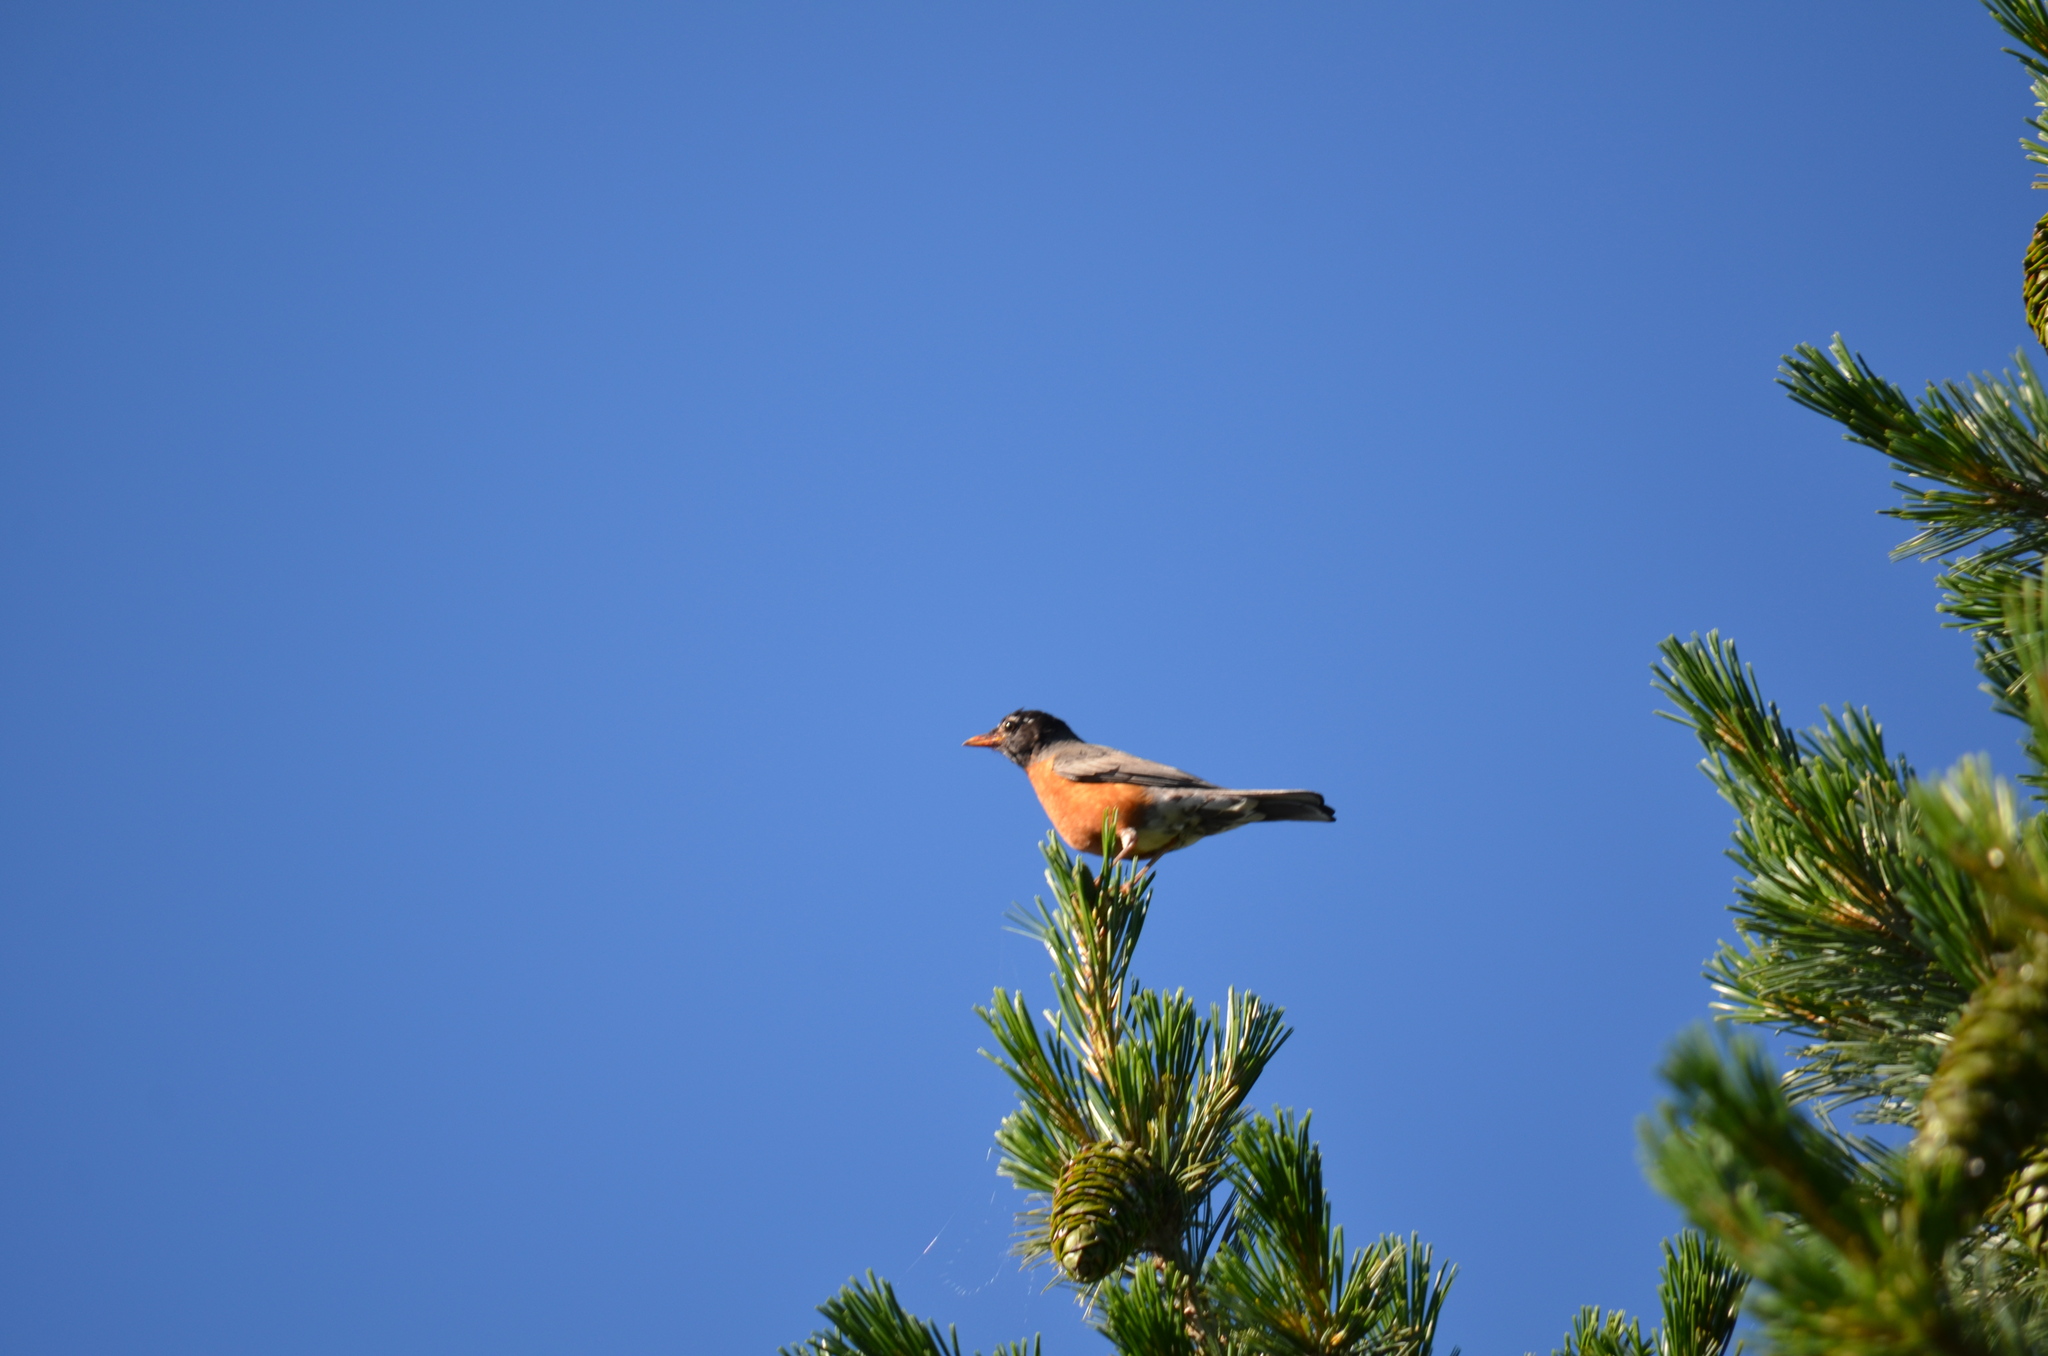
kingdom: Animalia
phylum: Chordata
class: Aves
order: Passeriformes
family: Turdidae
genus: Turdus
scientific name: Turdus migratorius
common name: American robin
